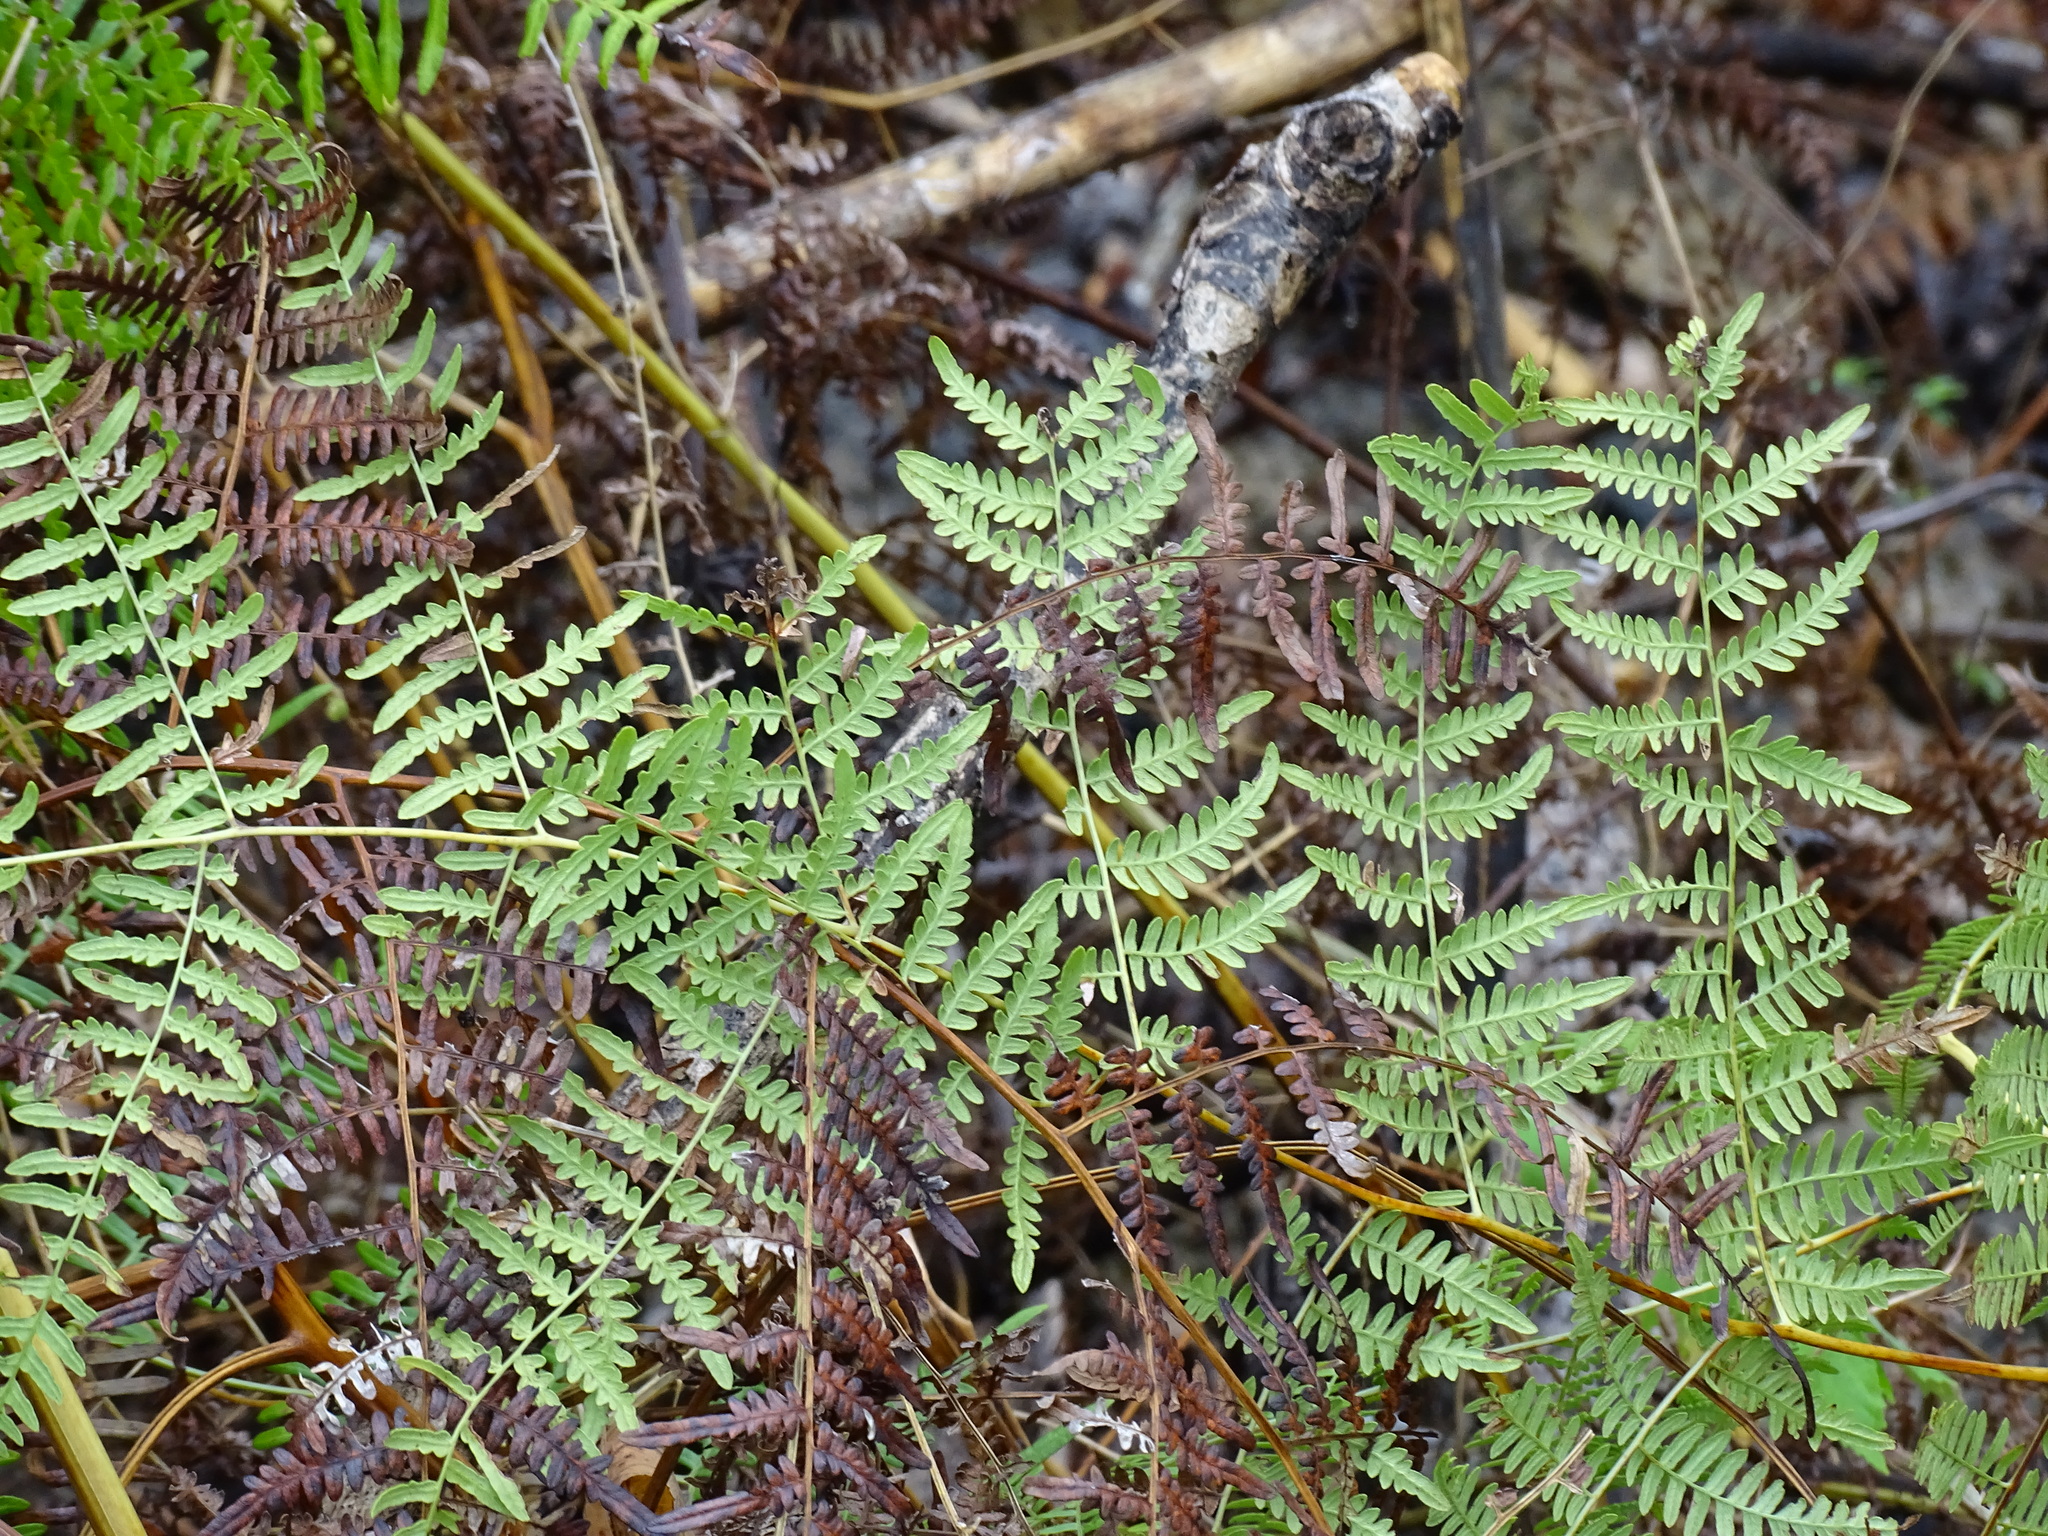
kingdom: Plantae
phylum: Tracheophyta
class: Polypodiopsida
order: Polypodiales
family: Dennstaedtiaceae
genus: Pteridium
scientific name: Pteridium caudatum
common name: Southern bracken fern
